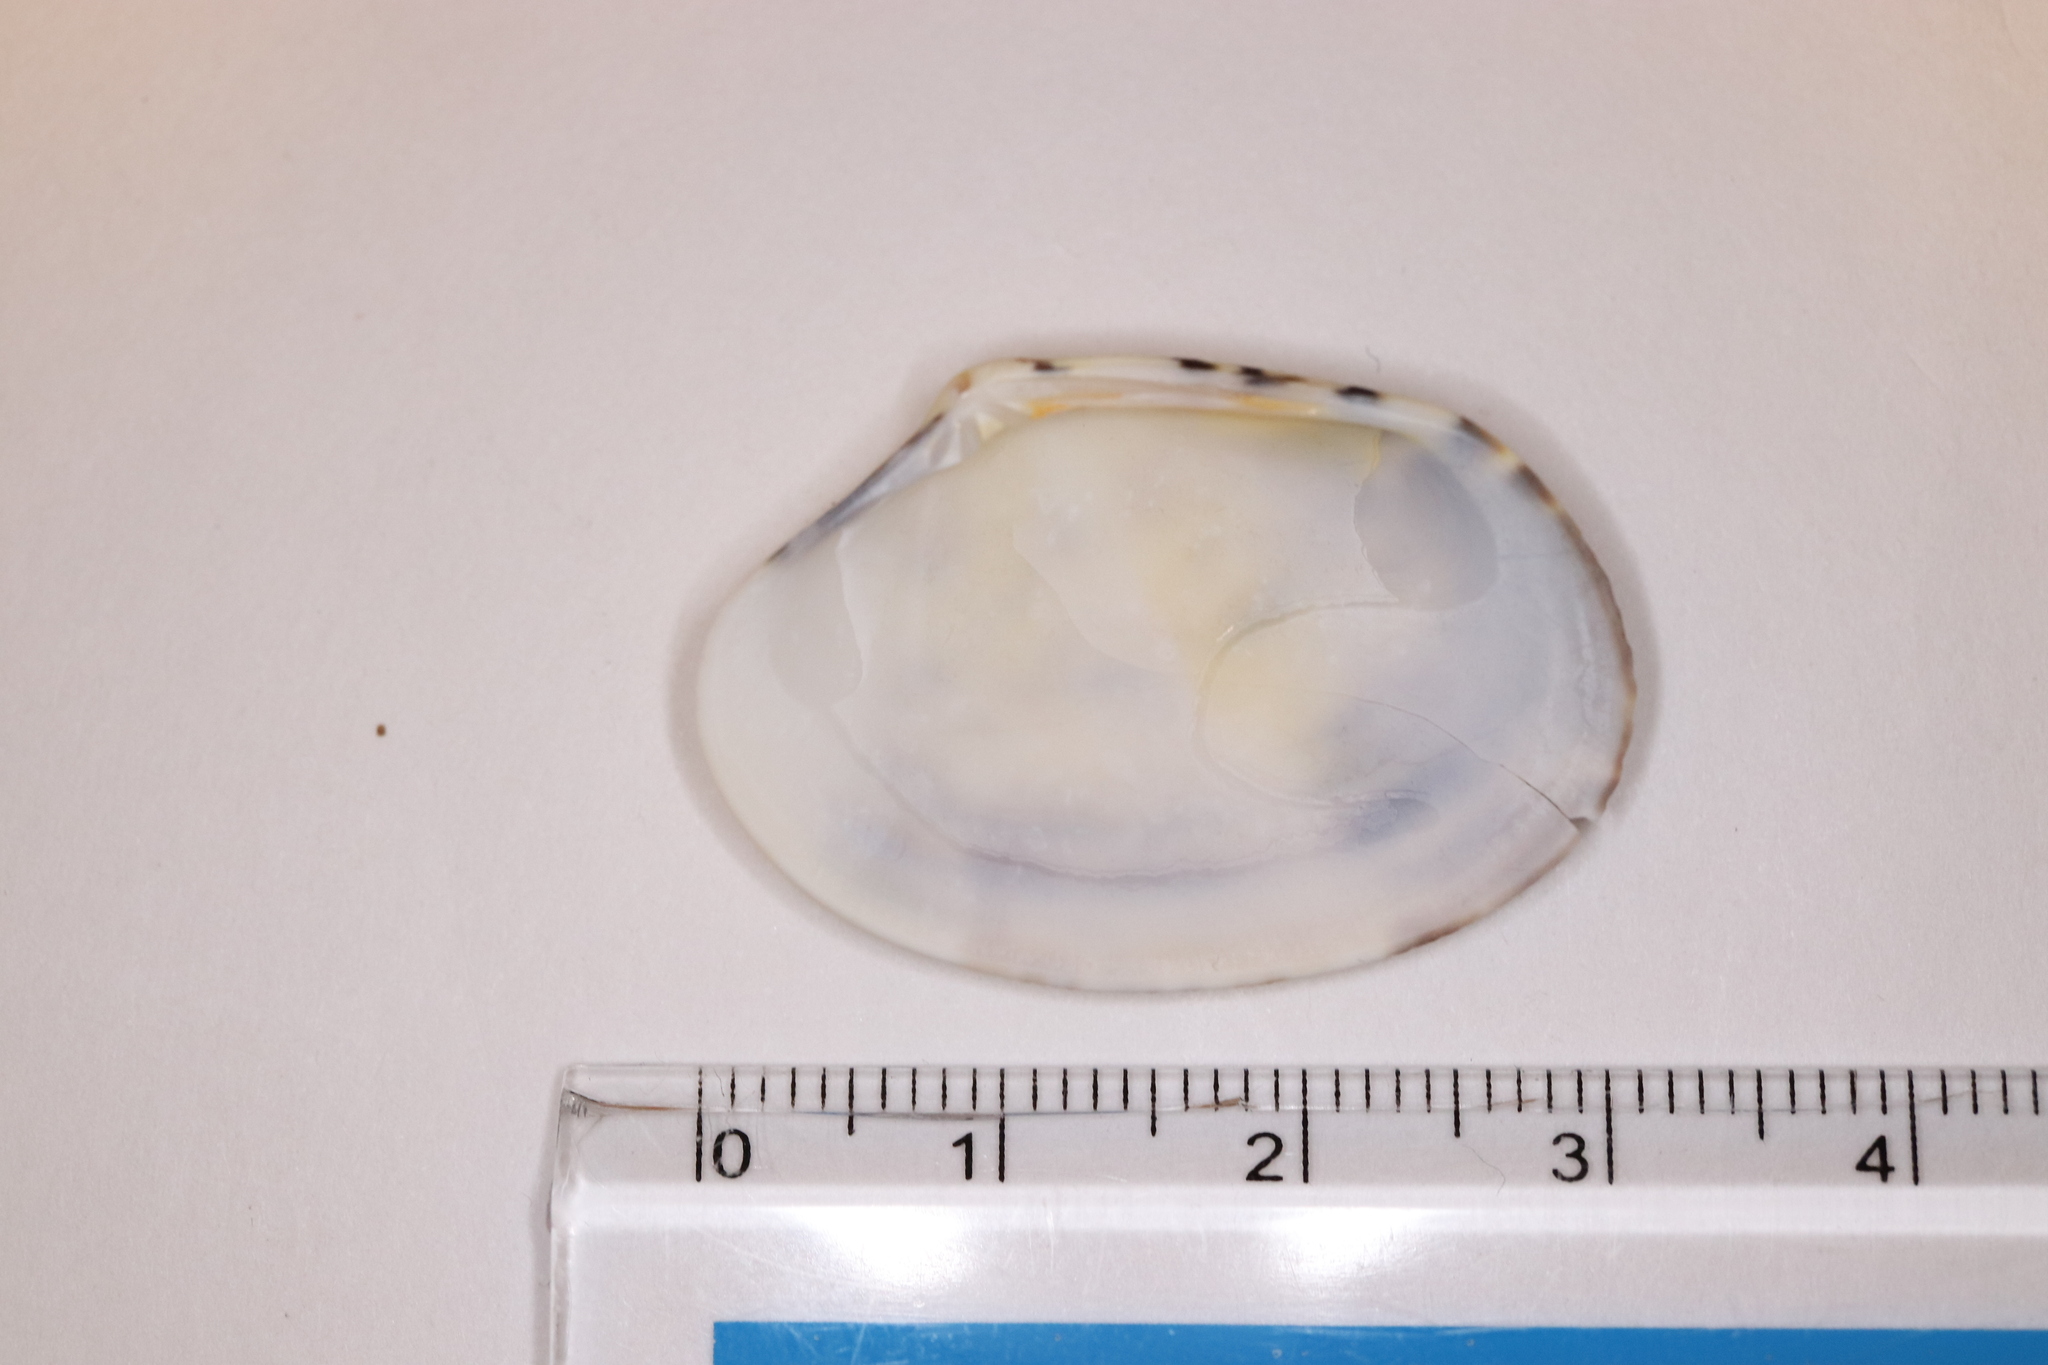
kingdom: Animalia
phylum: Mollusca
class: Bivalvia
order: Venerida
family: Veneridae
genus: Ruditapes
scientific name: Ruditapes philippinarum
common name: Manila clam
